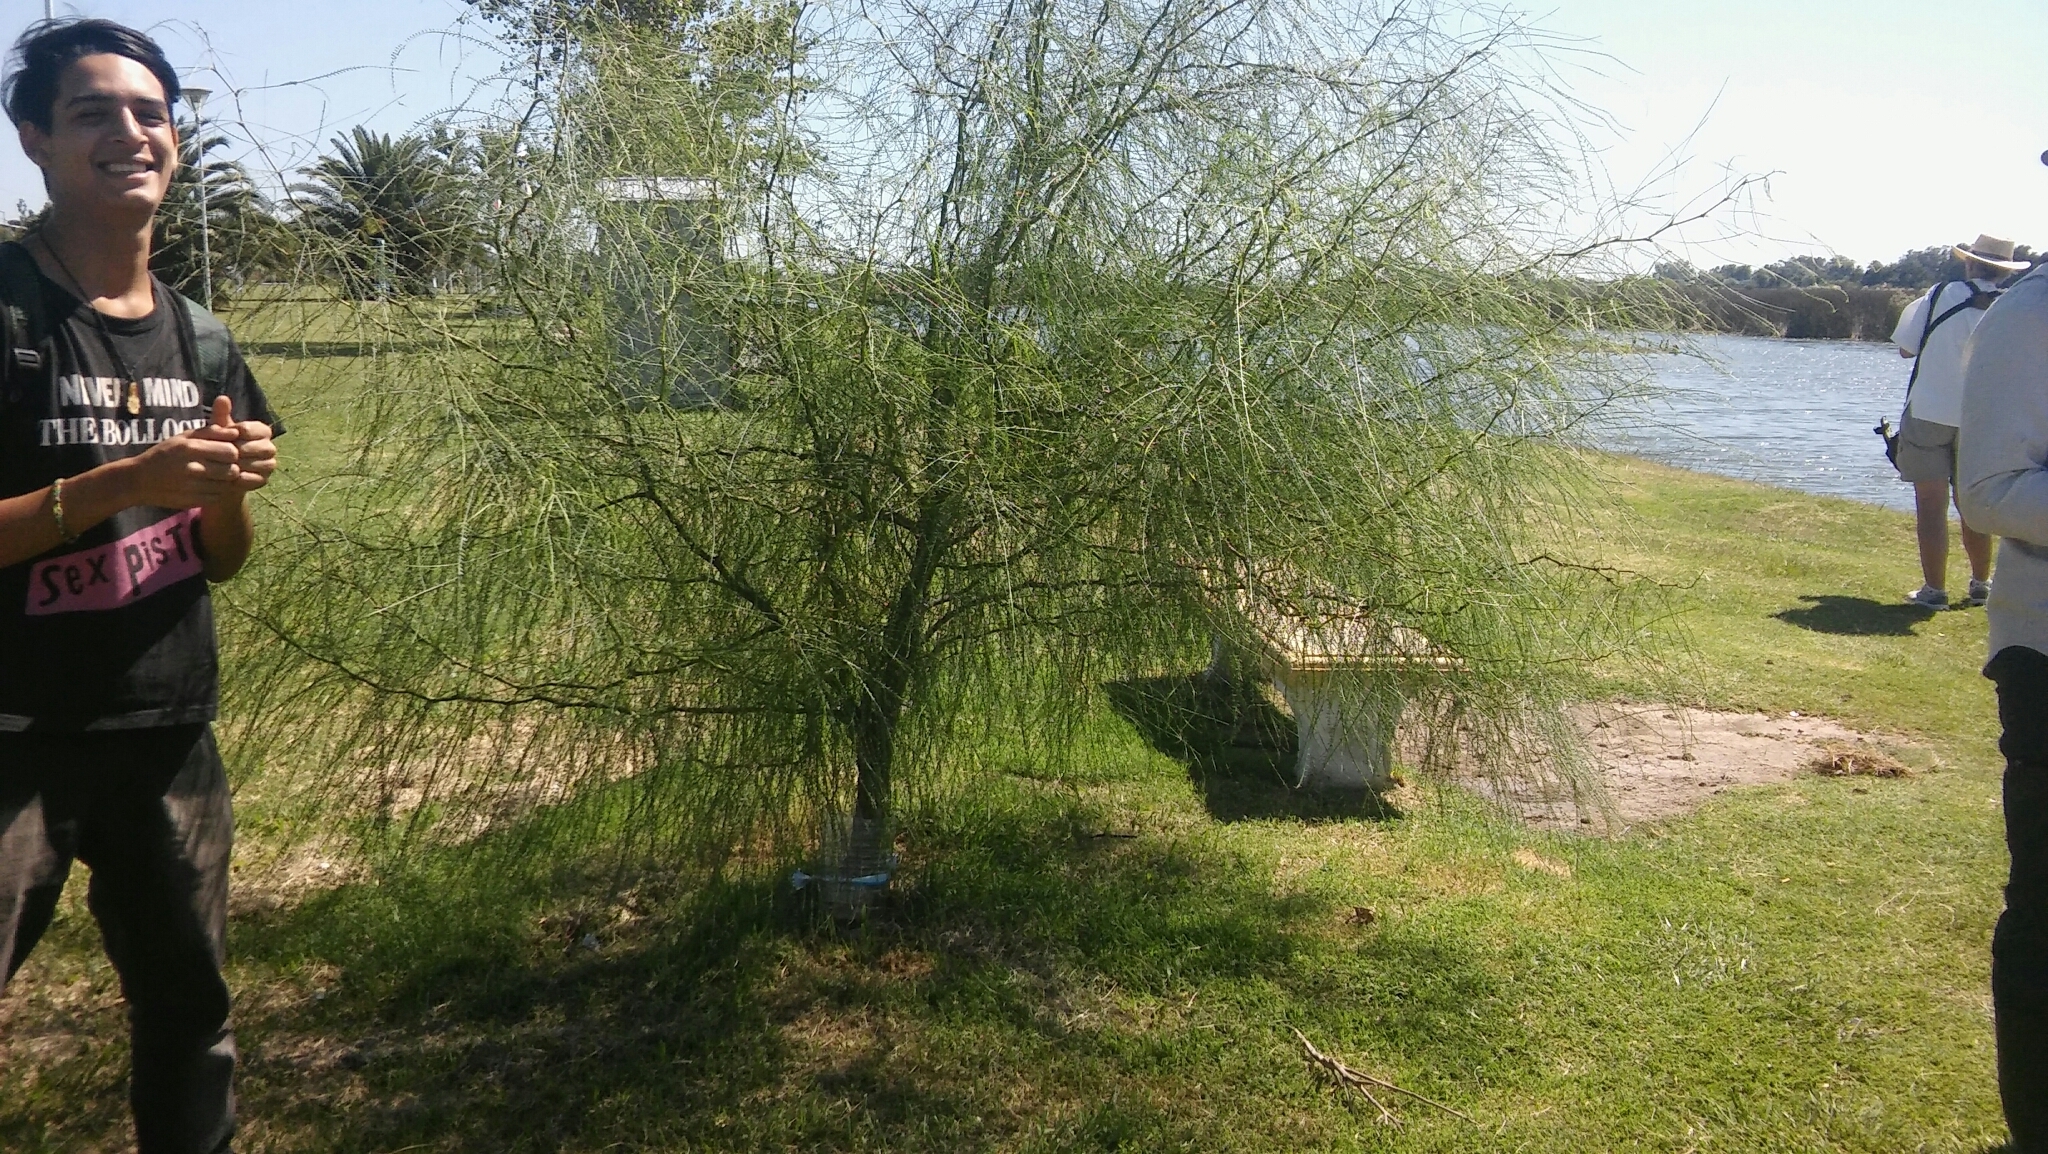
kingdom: Plantae
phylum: Tracheophyta
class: Magnoliopsida
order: Fabales
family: Fabaceae
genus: Parkinsonia
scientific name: Parkinsonia aculeata
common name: Jerusalem thorn
